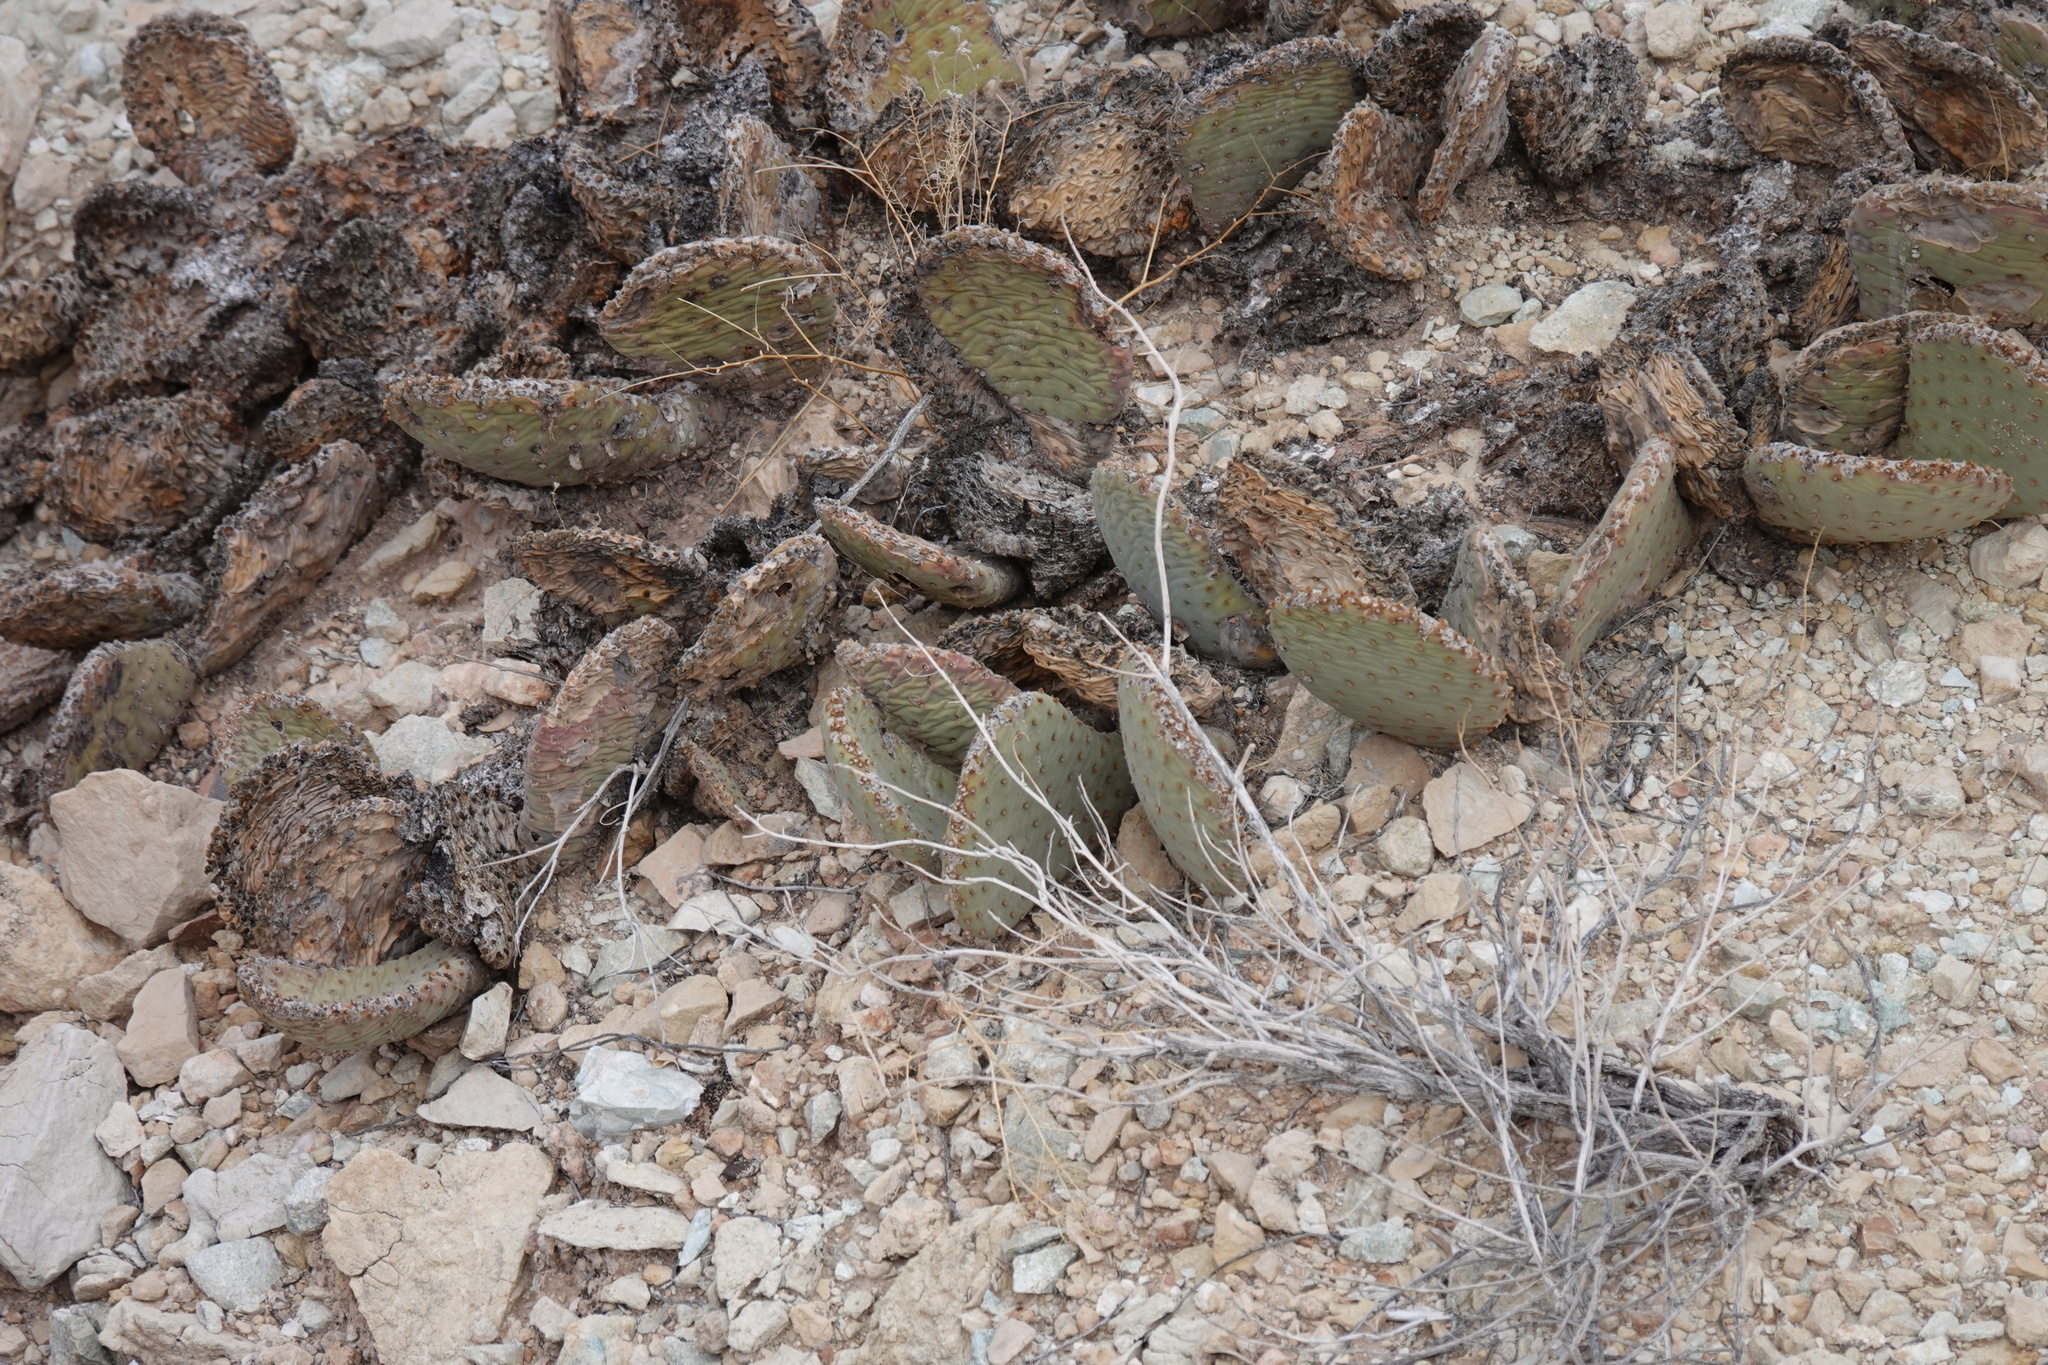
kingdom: Plantae
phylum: Tracheophyta
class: Magnoliopsida
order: Caryophyllales
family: Cactaceae
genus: Opuntia
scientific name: Opuntia basilaris
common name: Beavertail prickly-pear
